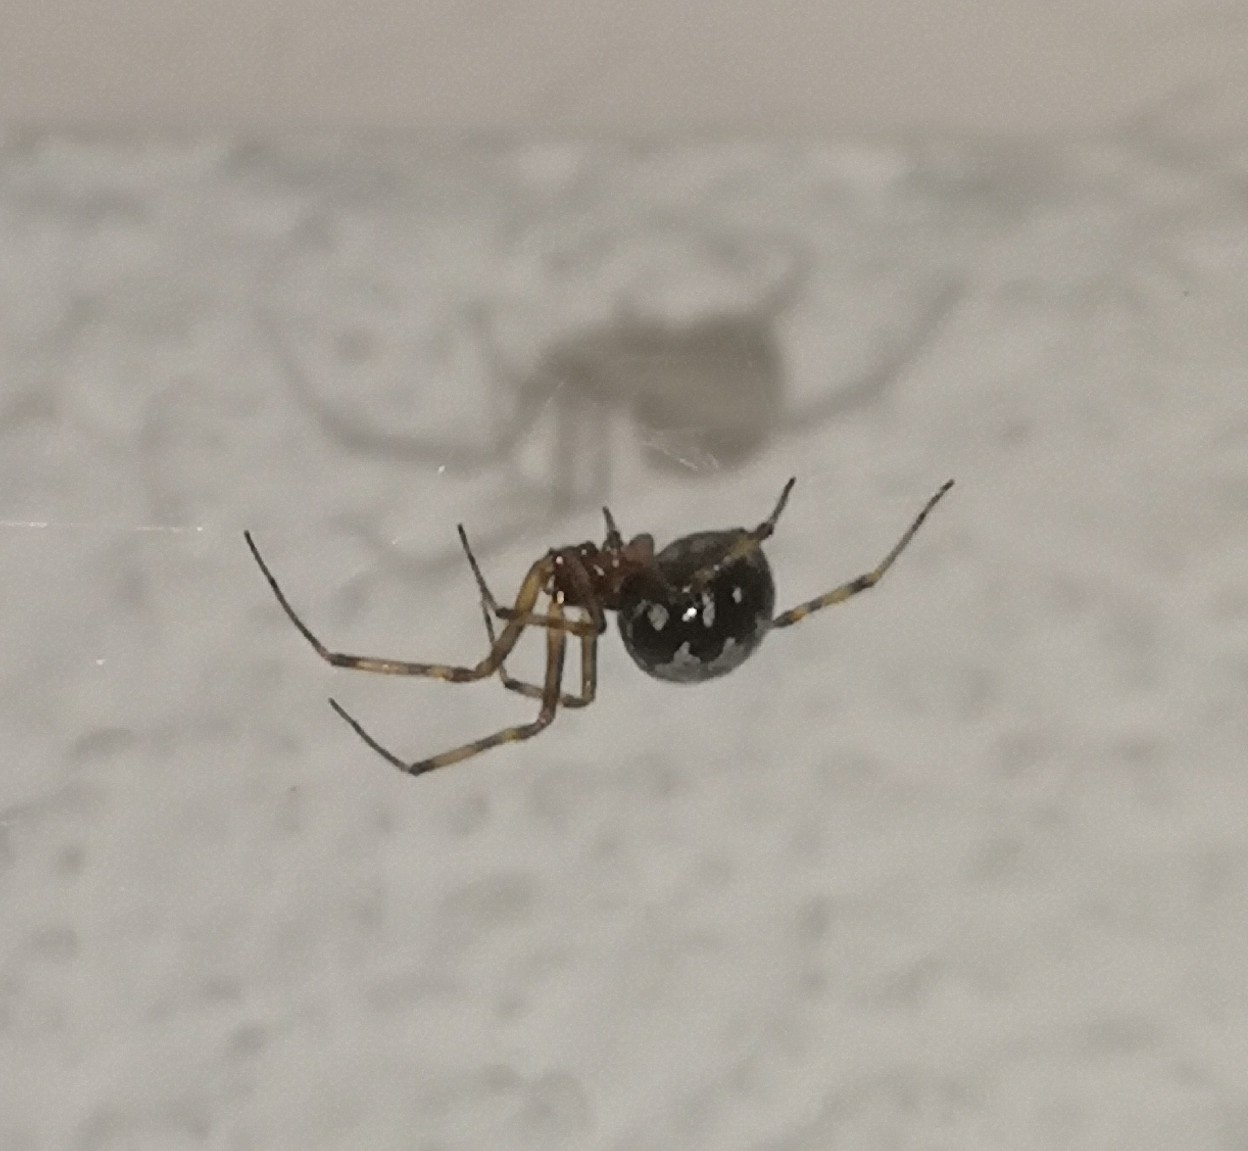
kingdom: Animalia
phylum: Arthropoda
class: Arachnida
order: Araneae
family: Theridiidae
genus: Steatoda
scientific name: Steatoda triangulosa
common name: Triangulate bud spider
